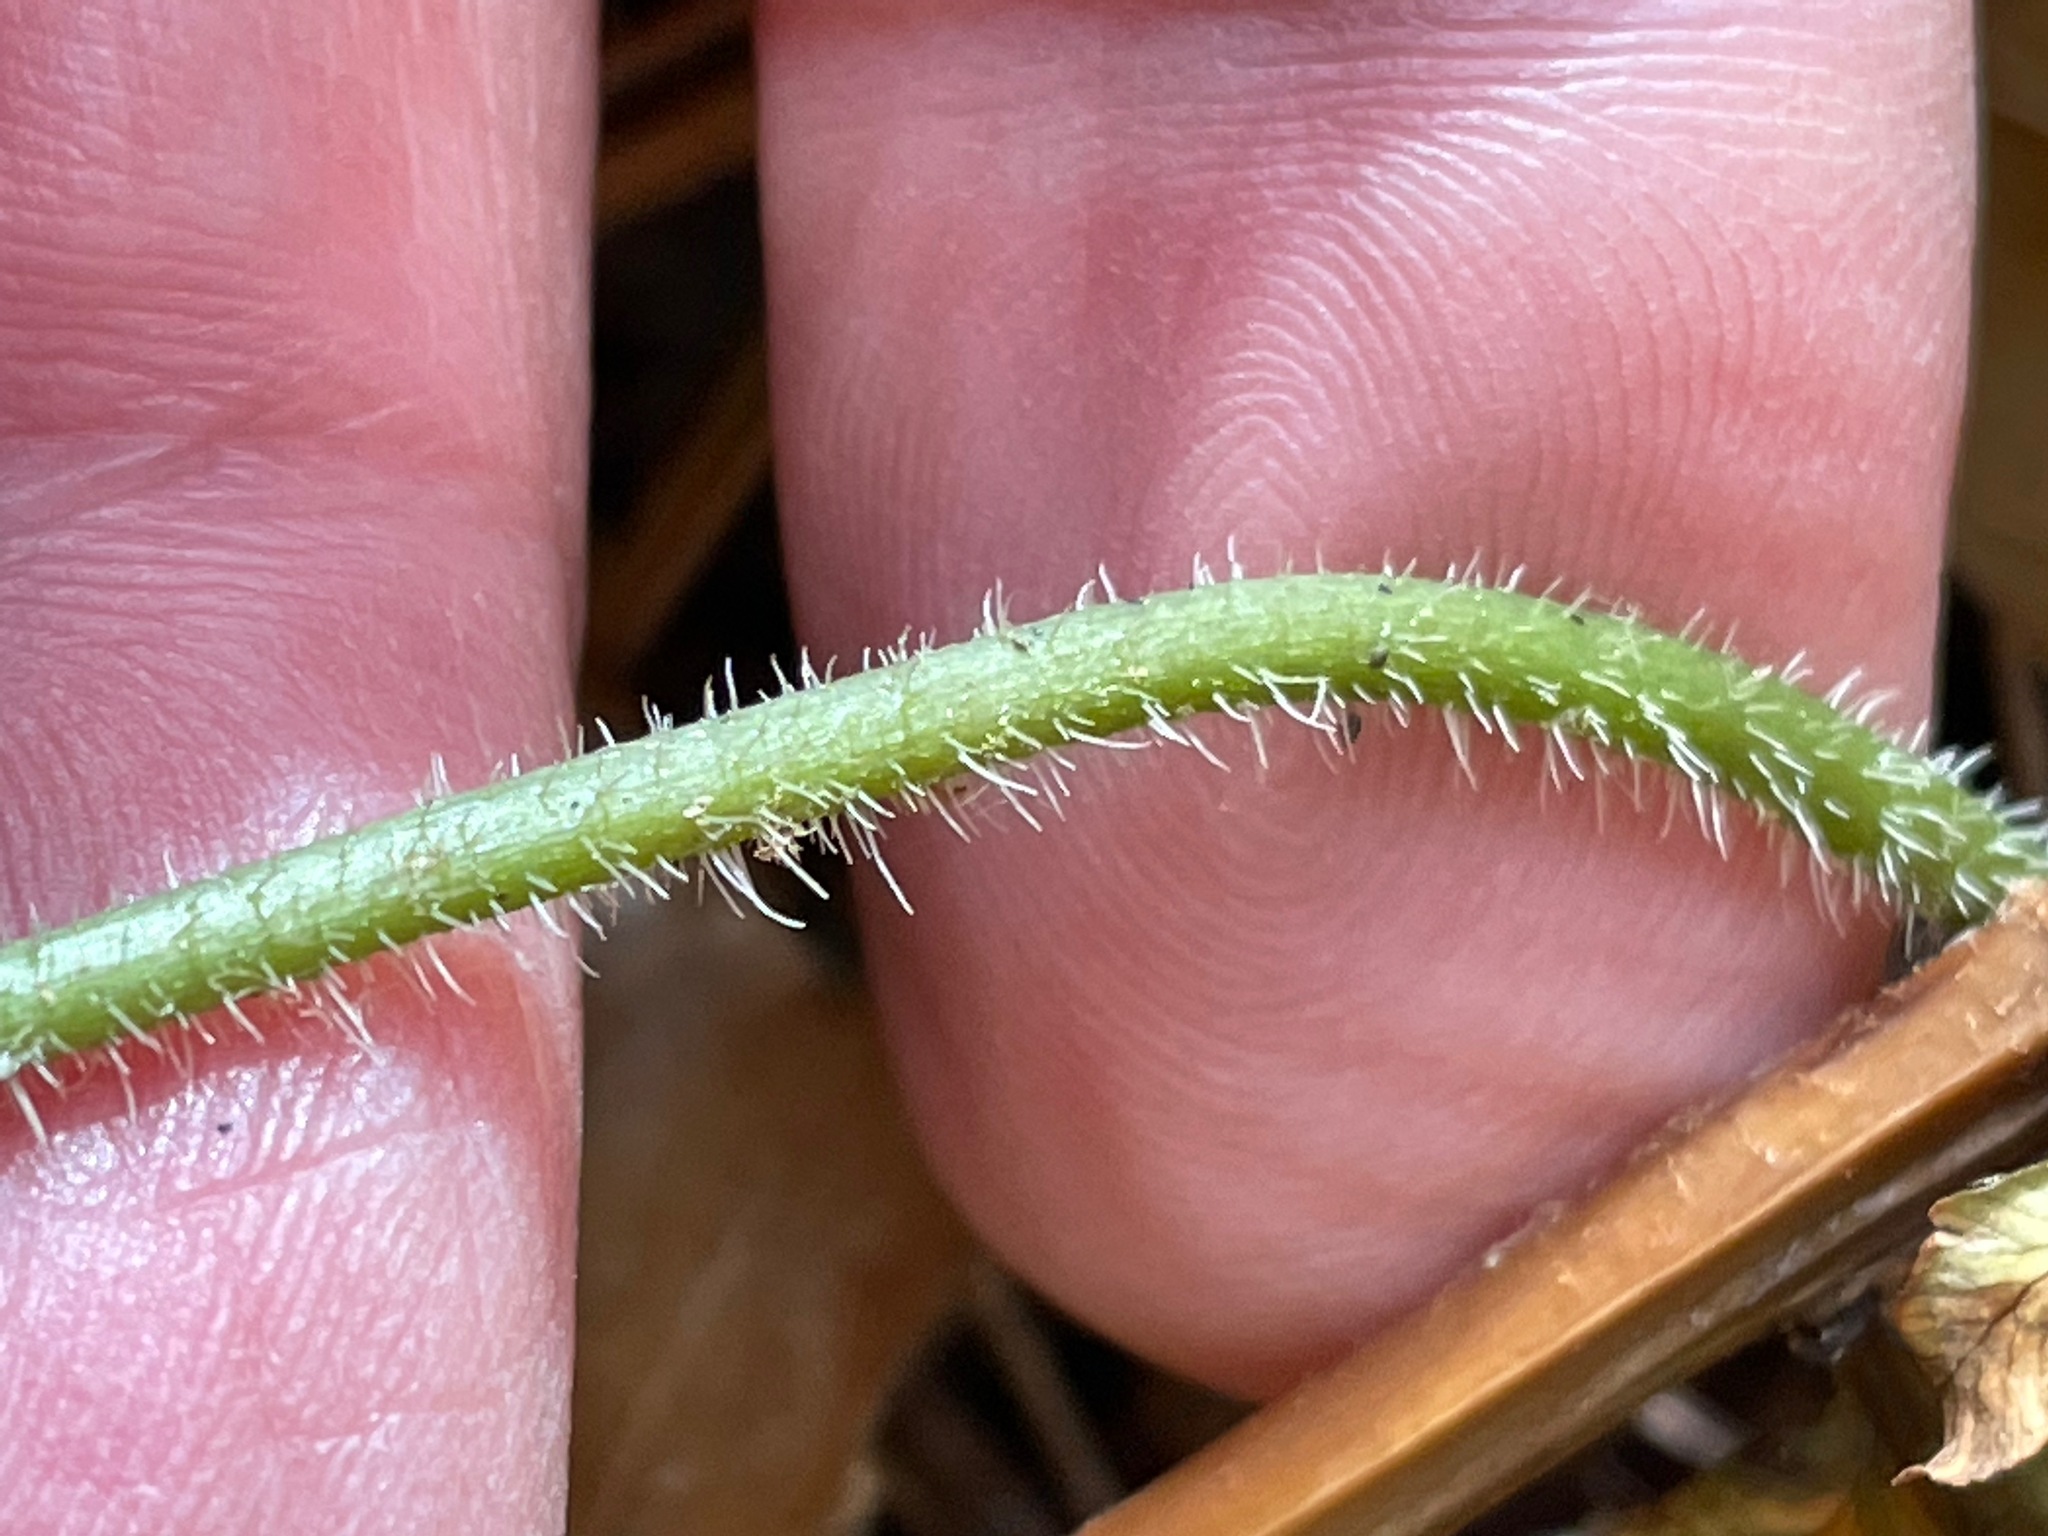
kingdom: Plantae
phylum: Tracheophyta
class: Magnoliopsida
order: Saxifragales
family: Saxifragaceae
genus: Tiarella
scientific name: Tiarella stolonifera
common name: Stoloniferous foamflower
